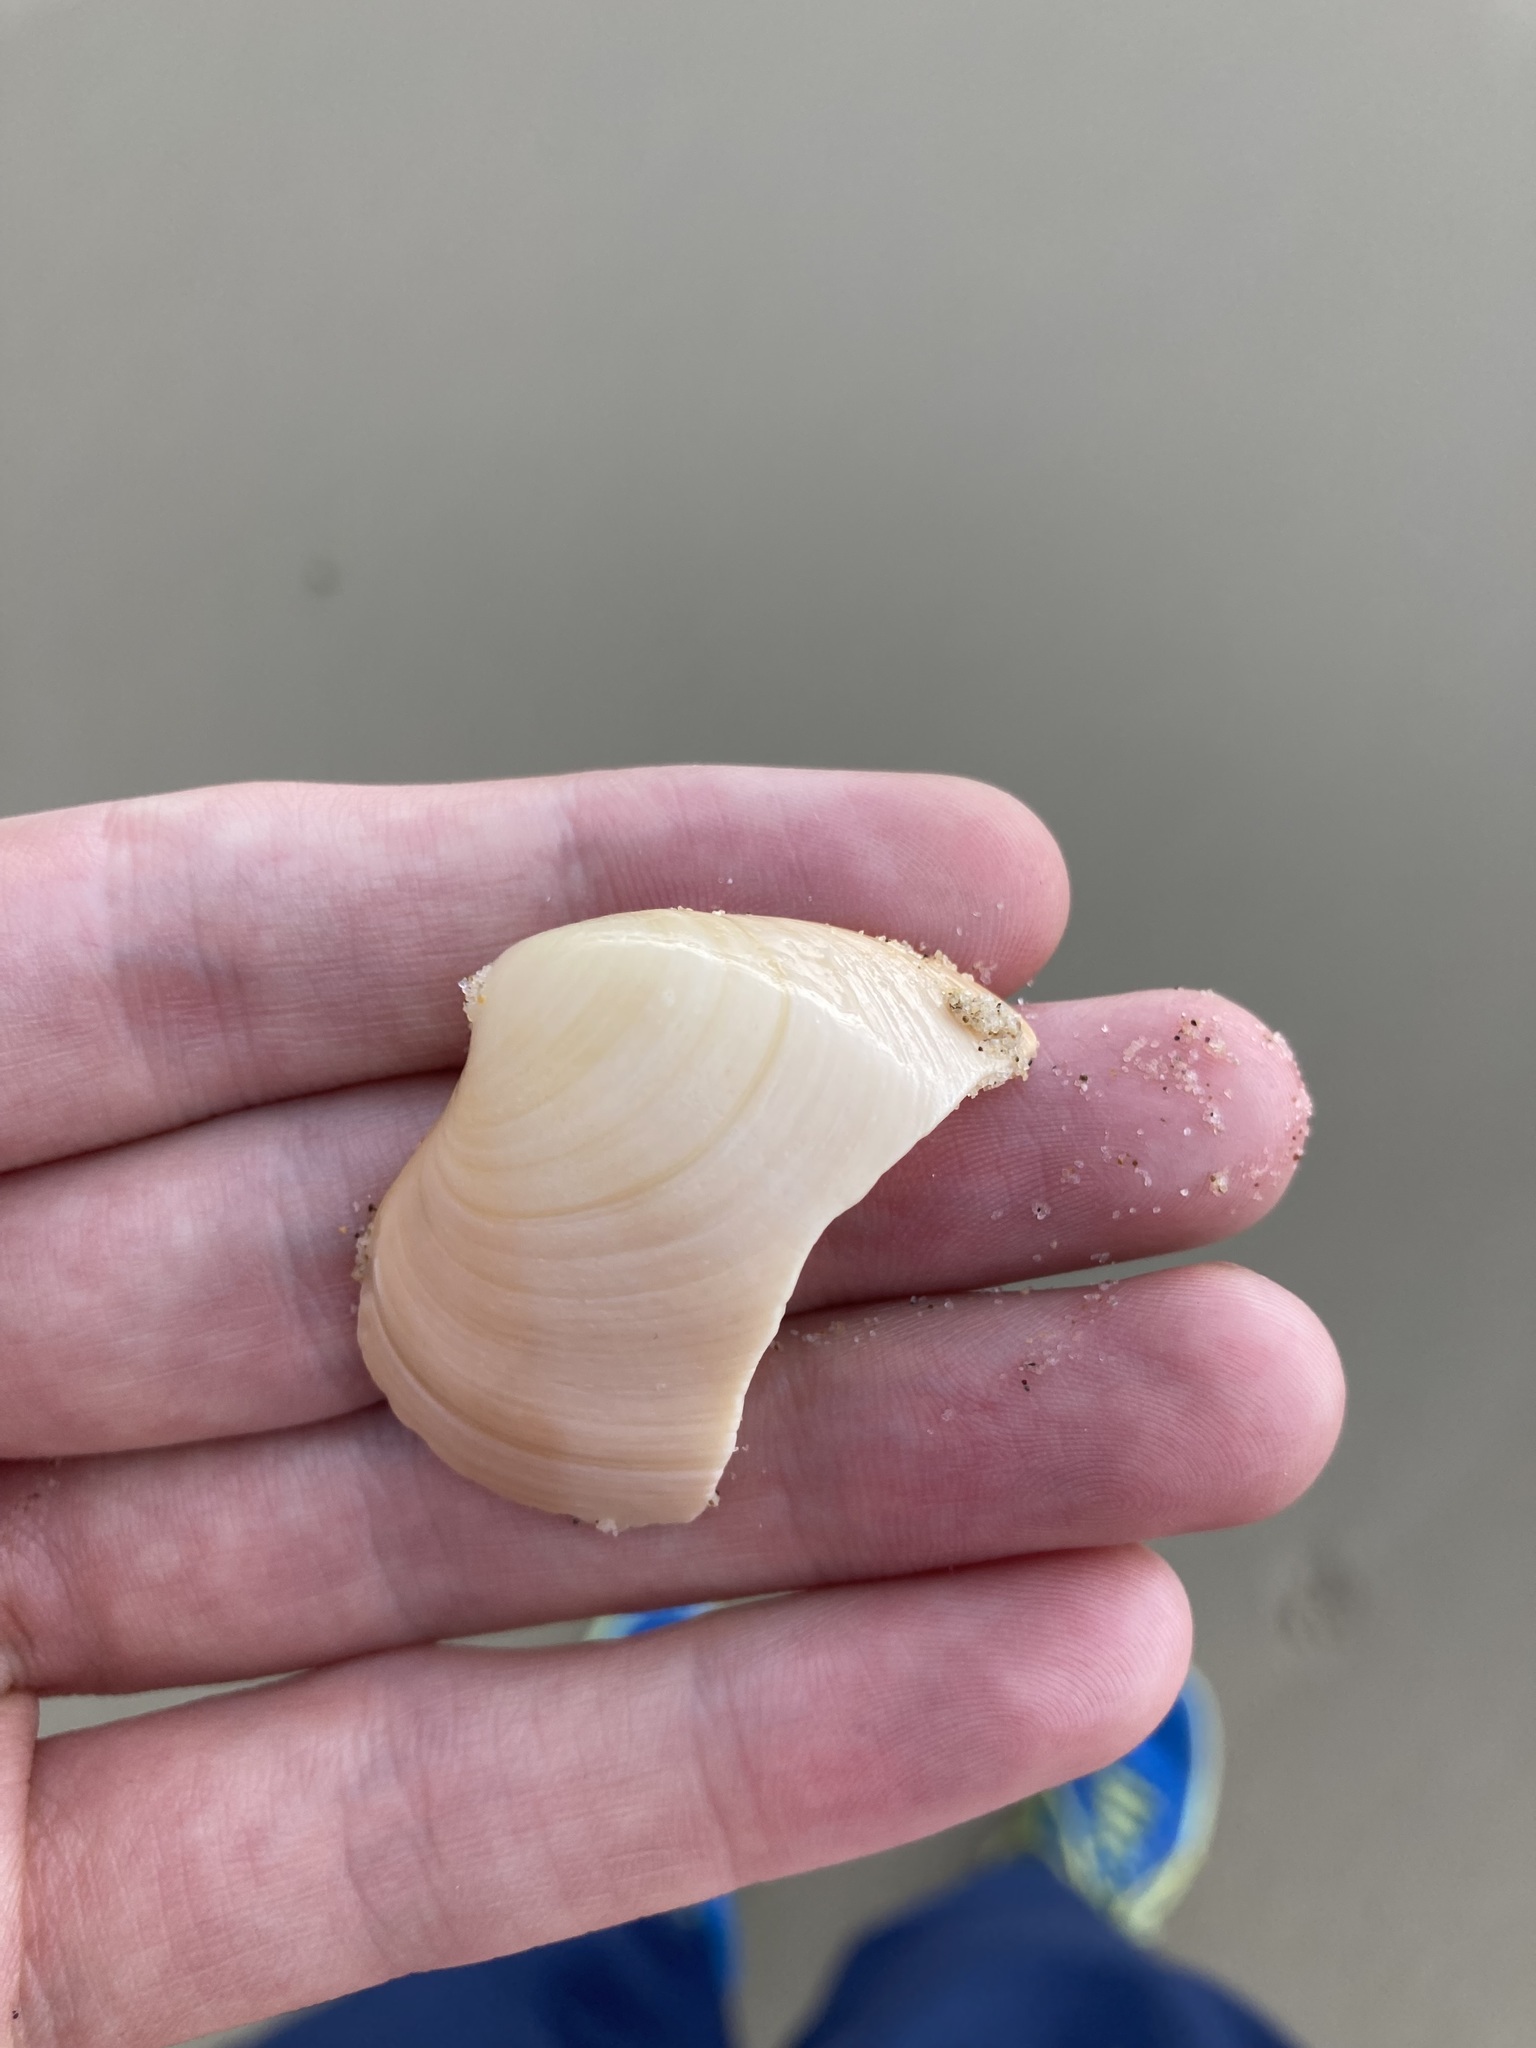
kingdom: Animalia
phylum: Mollusca
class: Bivalvia
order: Venerida
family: Veneridae
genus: Bassina
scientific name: Bassina pachyphylla
